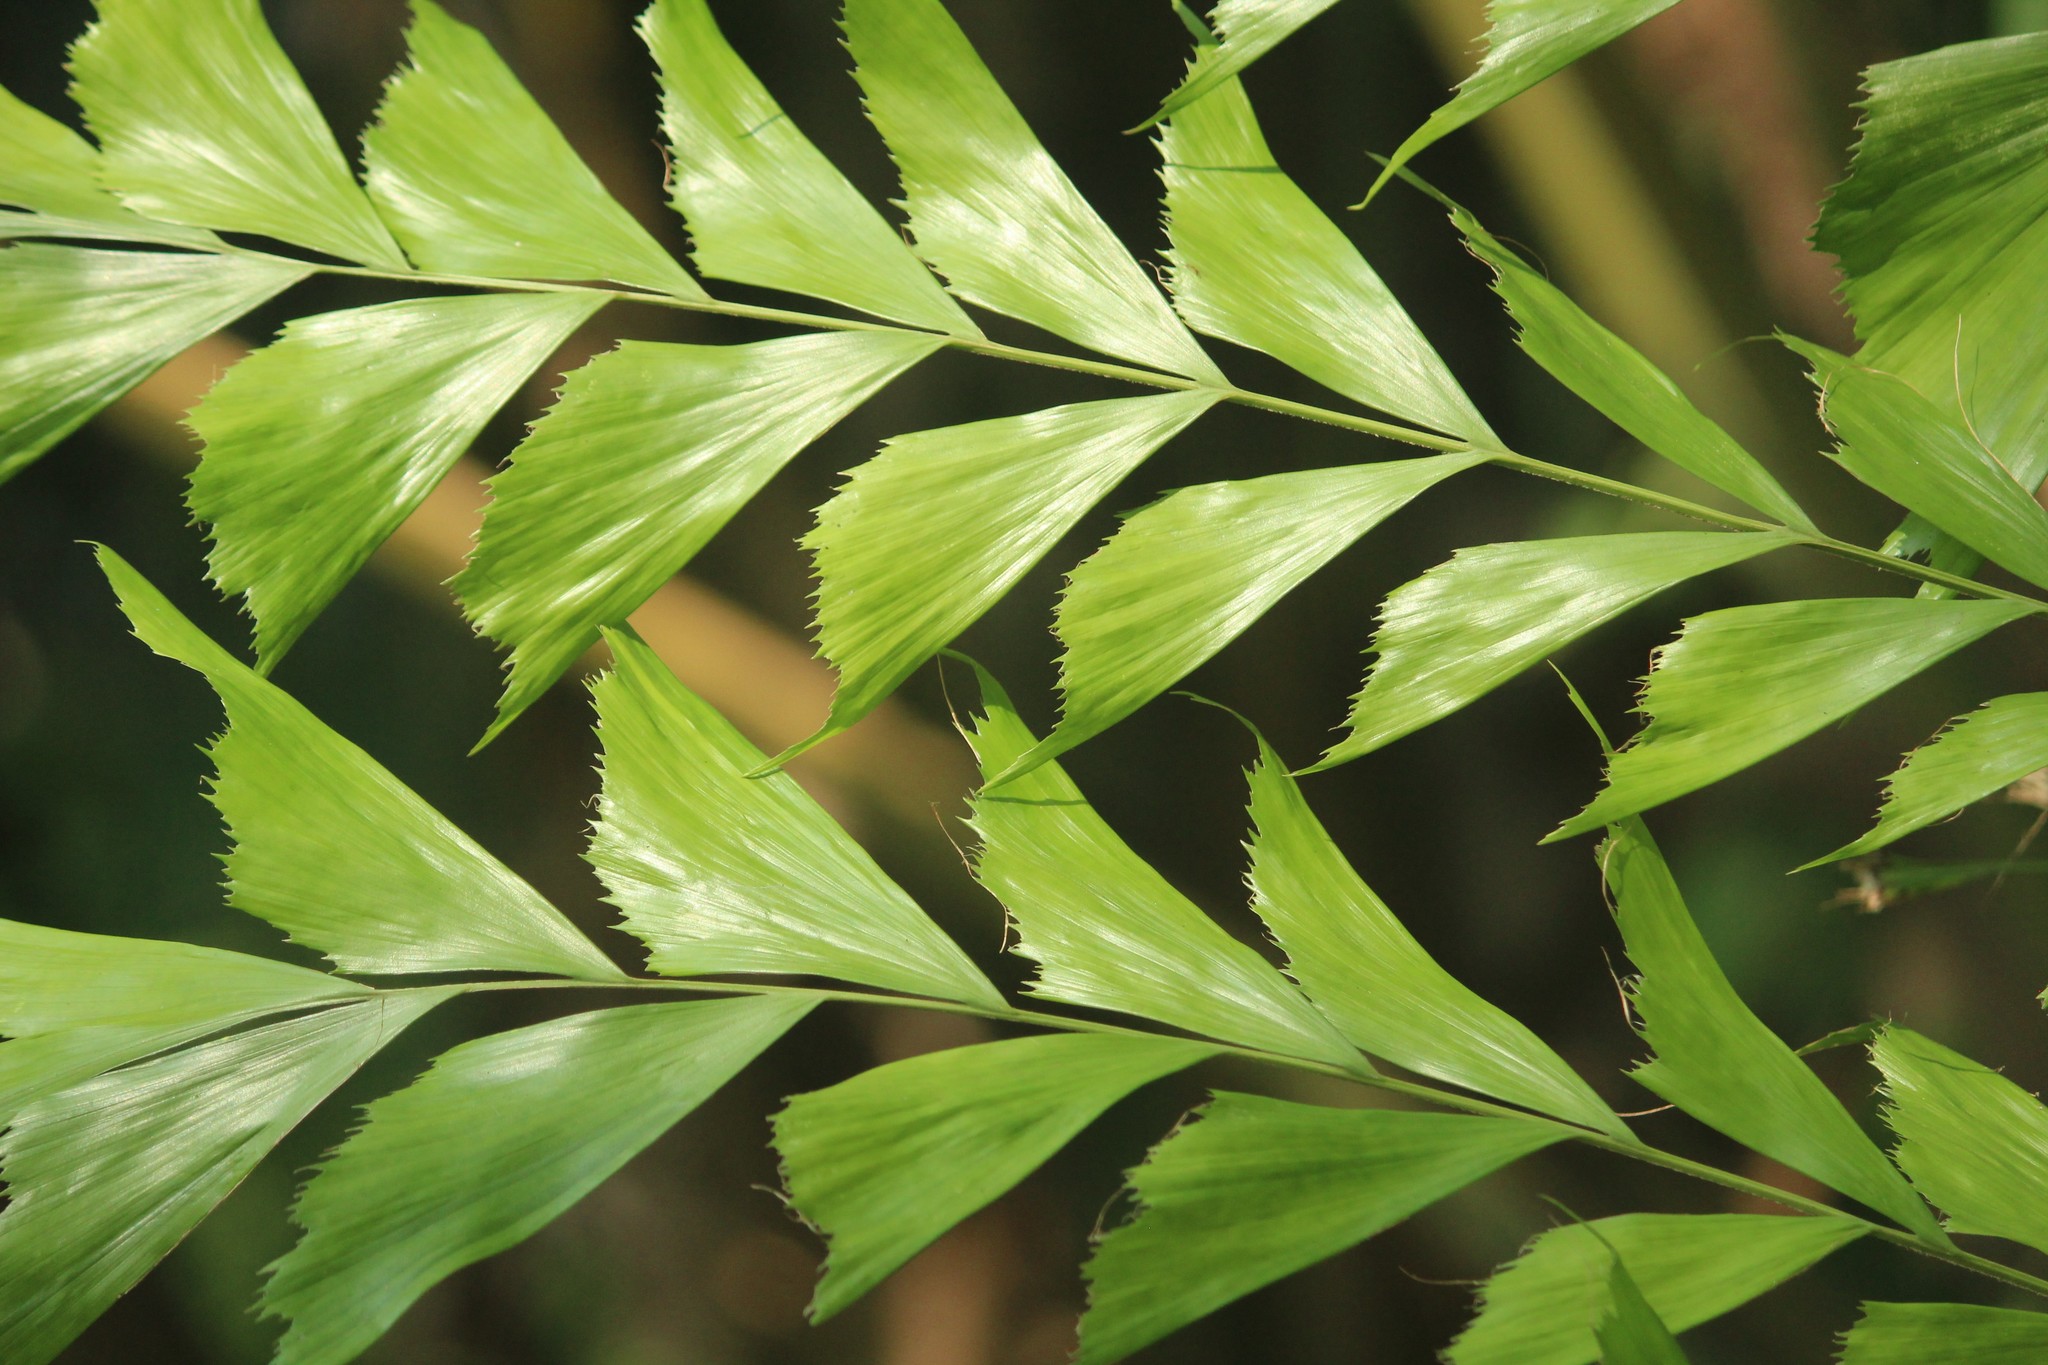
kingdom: Plantae
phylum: Tracheophyta
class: Liliopsida
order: Arecales
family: Arecaceae
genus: Caryota
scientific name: Caryota urens
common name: Jaggery palm
